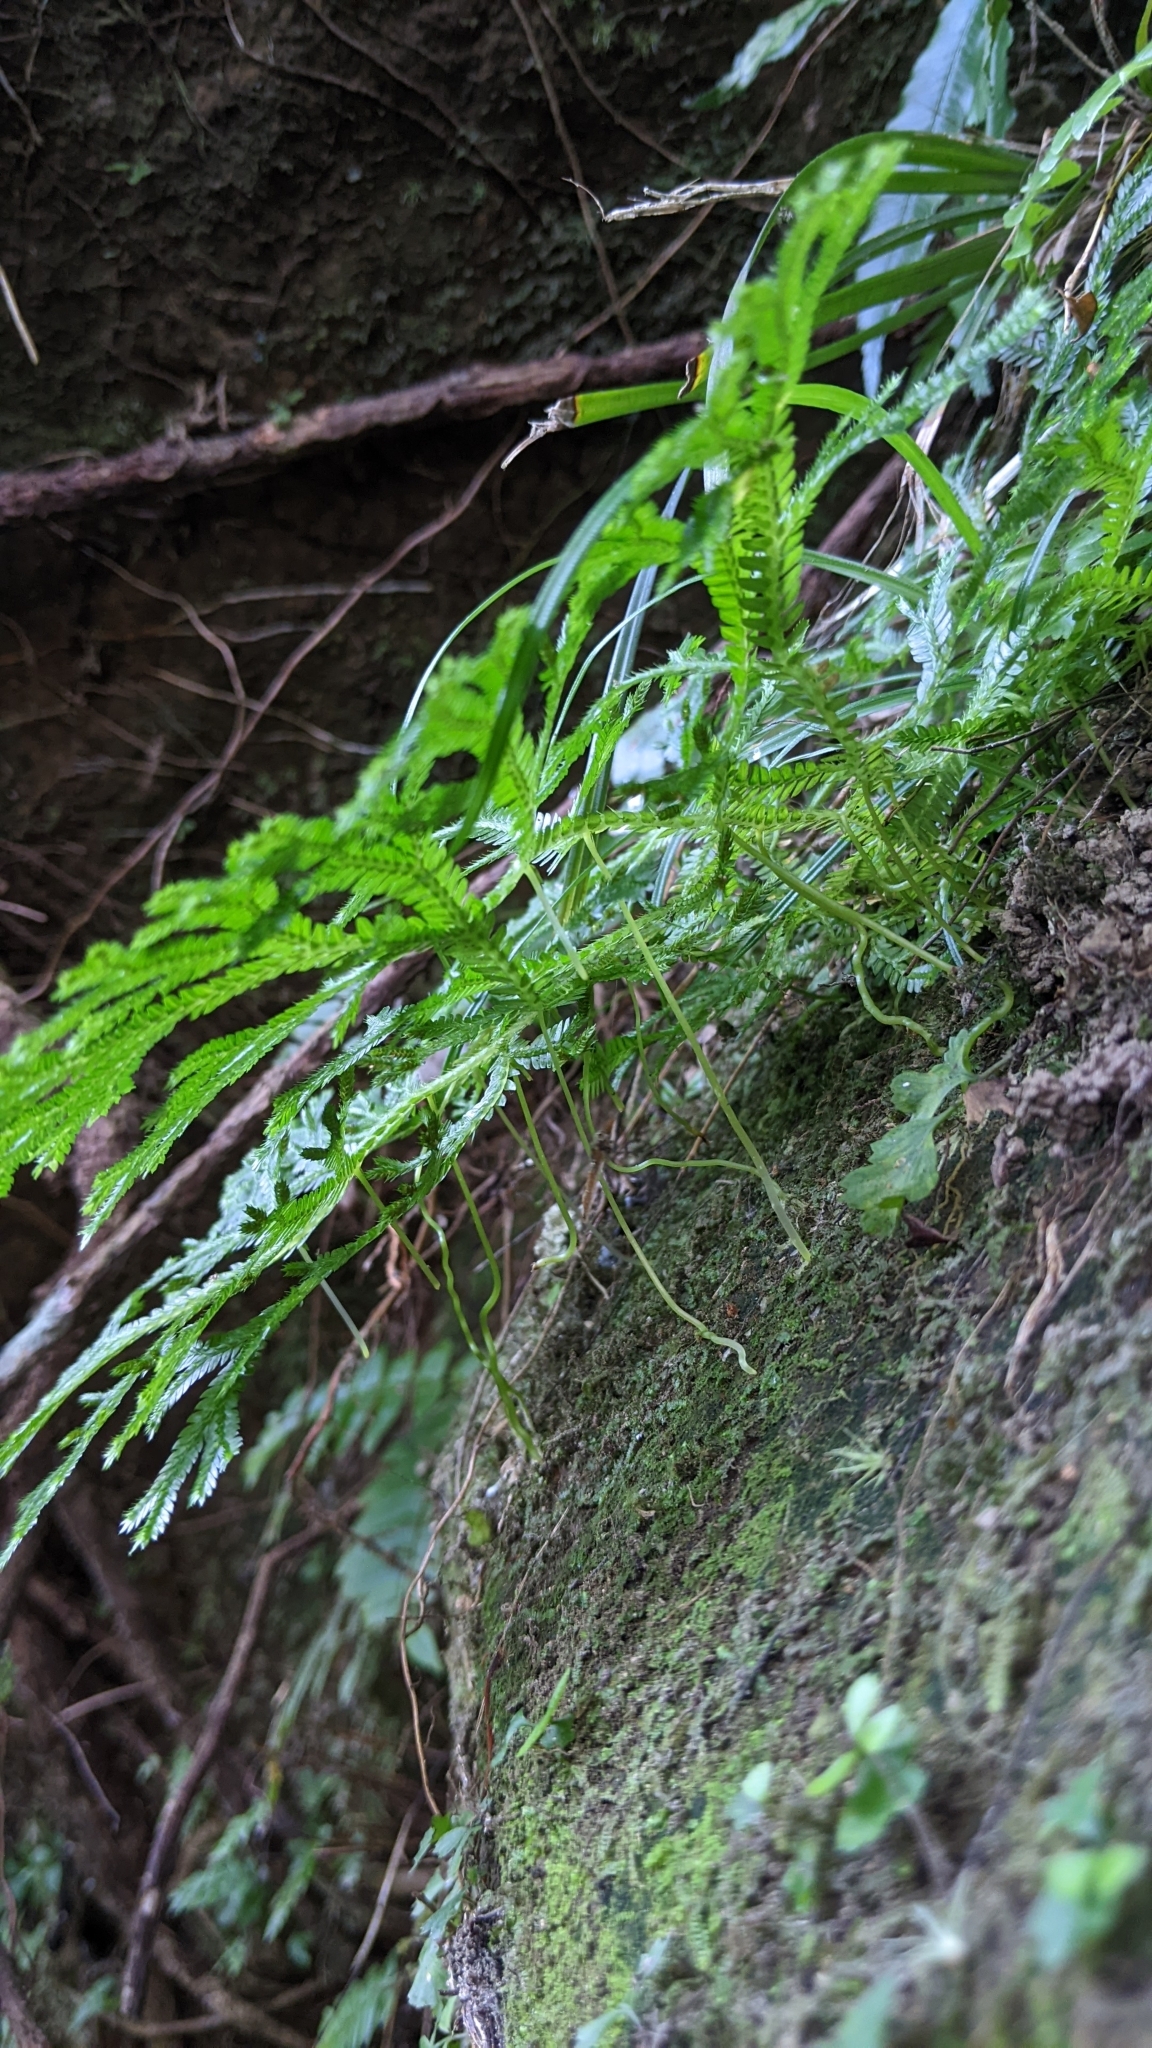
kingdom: Plantae
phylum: Tracheophyta
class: Lycopodiopsida
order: Selaginellales
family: Selaginellaceae
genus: Selaginella
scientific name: Selaginella doederleinii
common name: Greater selaginella
